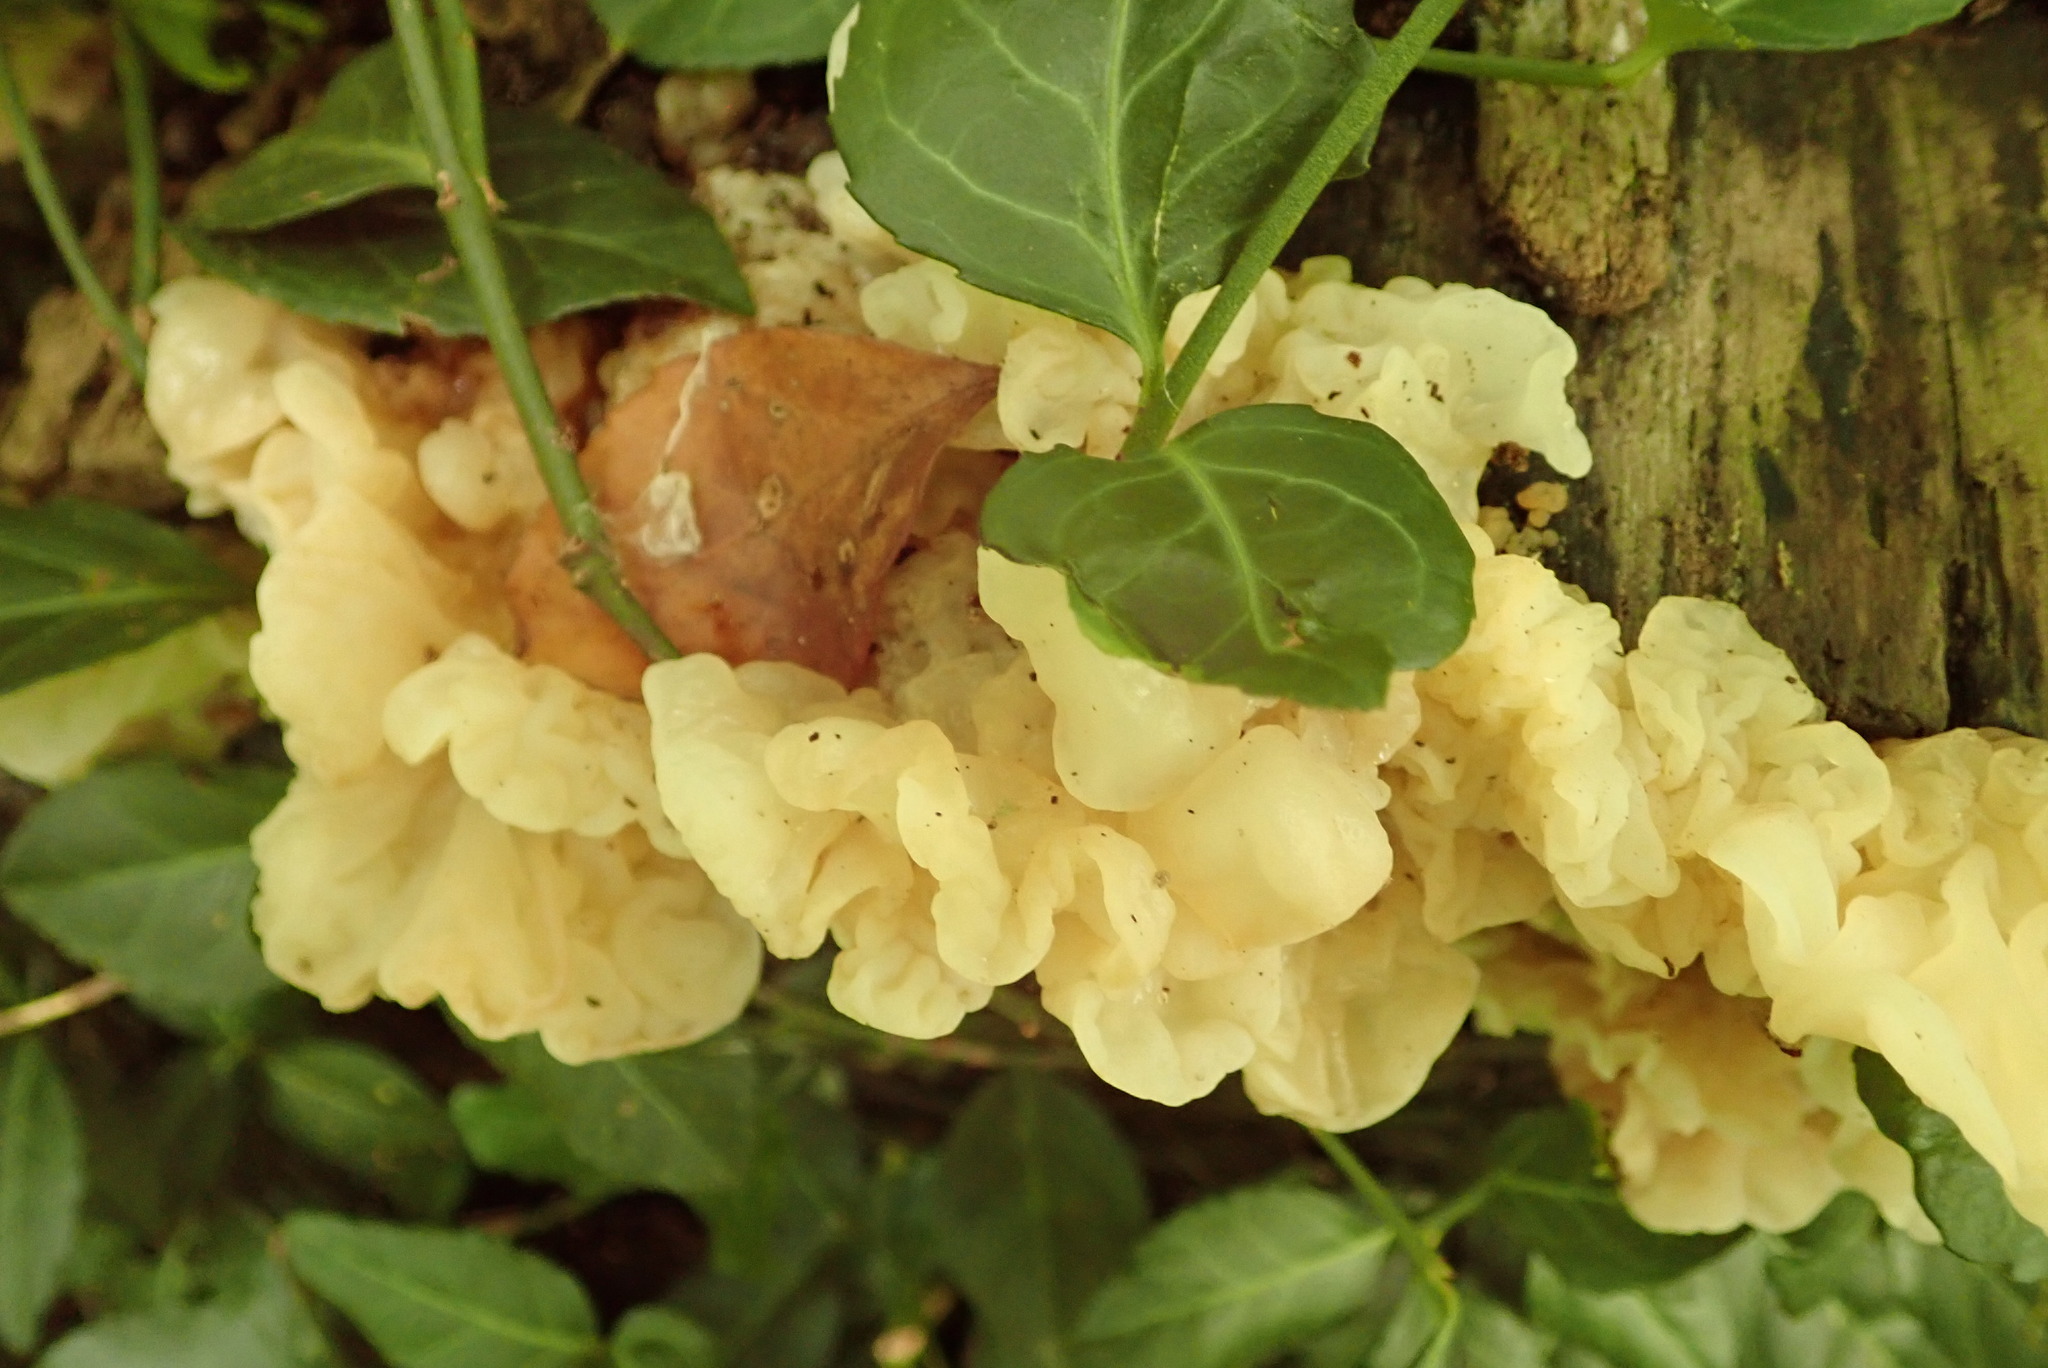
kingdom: Fungi
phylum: Basidiomycota
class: Agaricomycetes
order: Auriculariales
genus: Ductifera
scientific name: Ductifera pululahuana
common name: White jelly fungus
